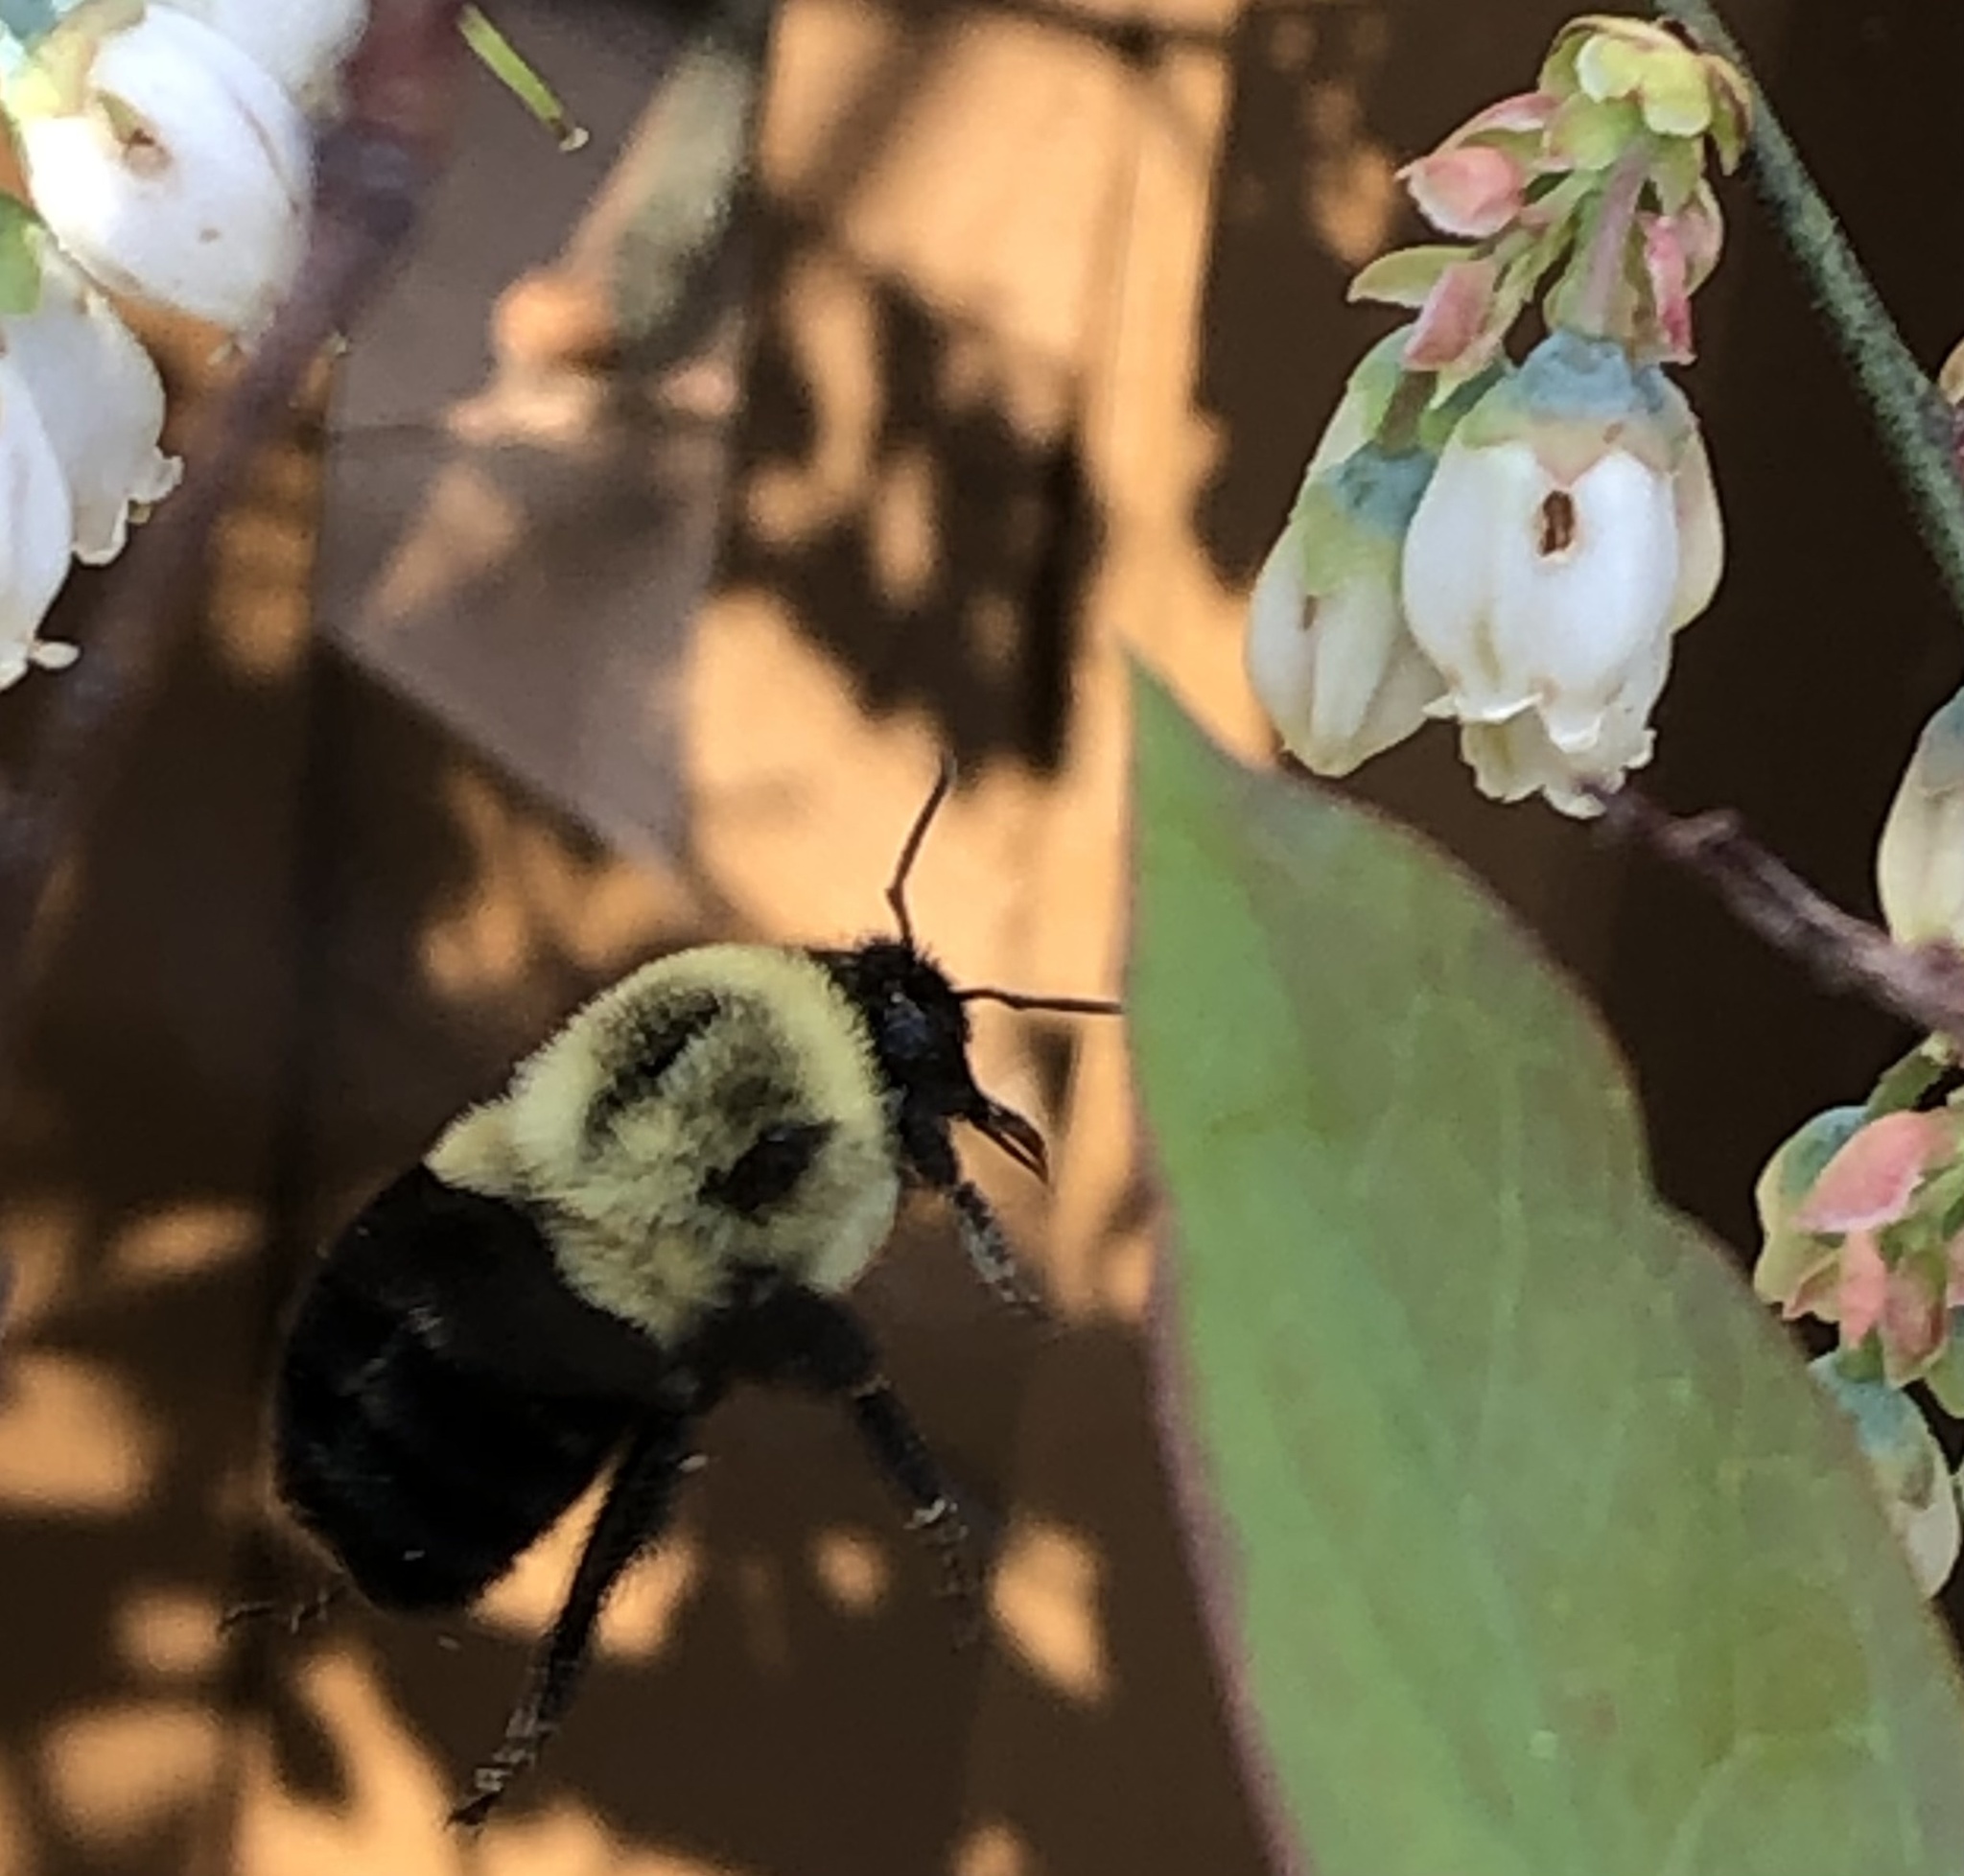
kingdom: Animalia
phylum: Arthropoda
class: Insecta
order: Hymenoptera
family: Apidae
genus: Bombus
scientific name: Bombus impatiens
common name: Common eastern bumble bee
